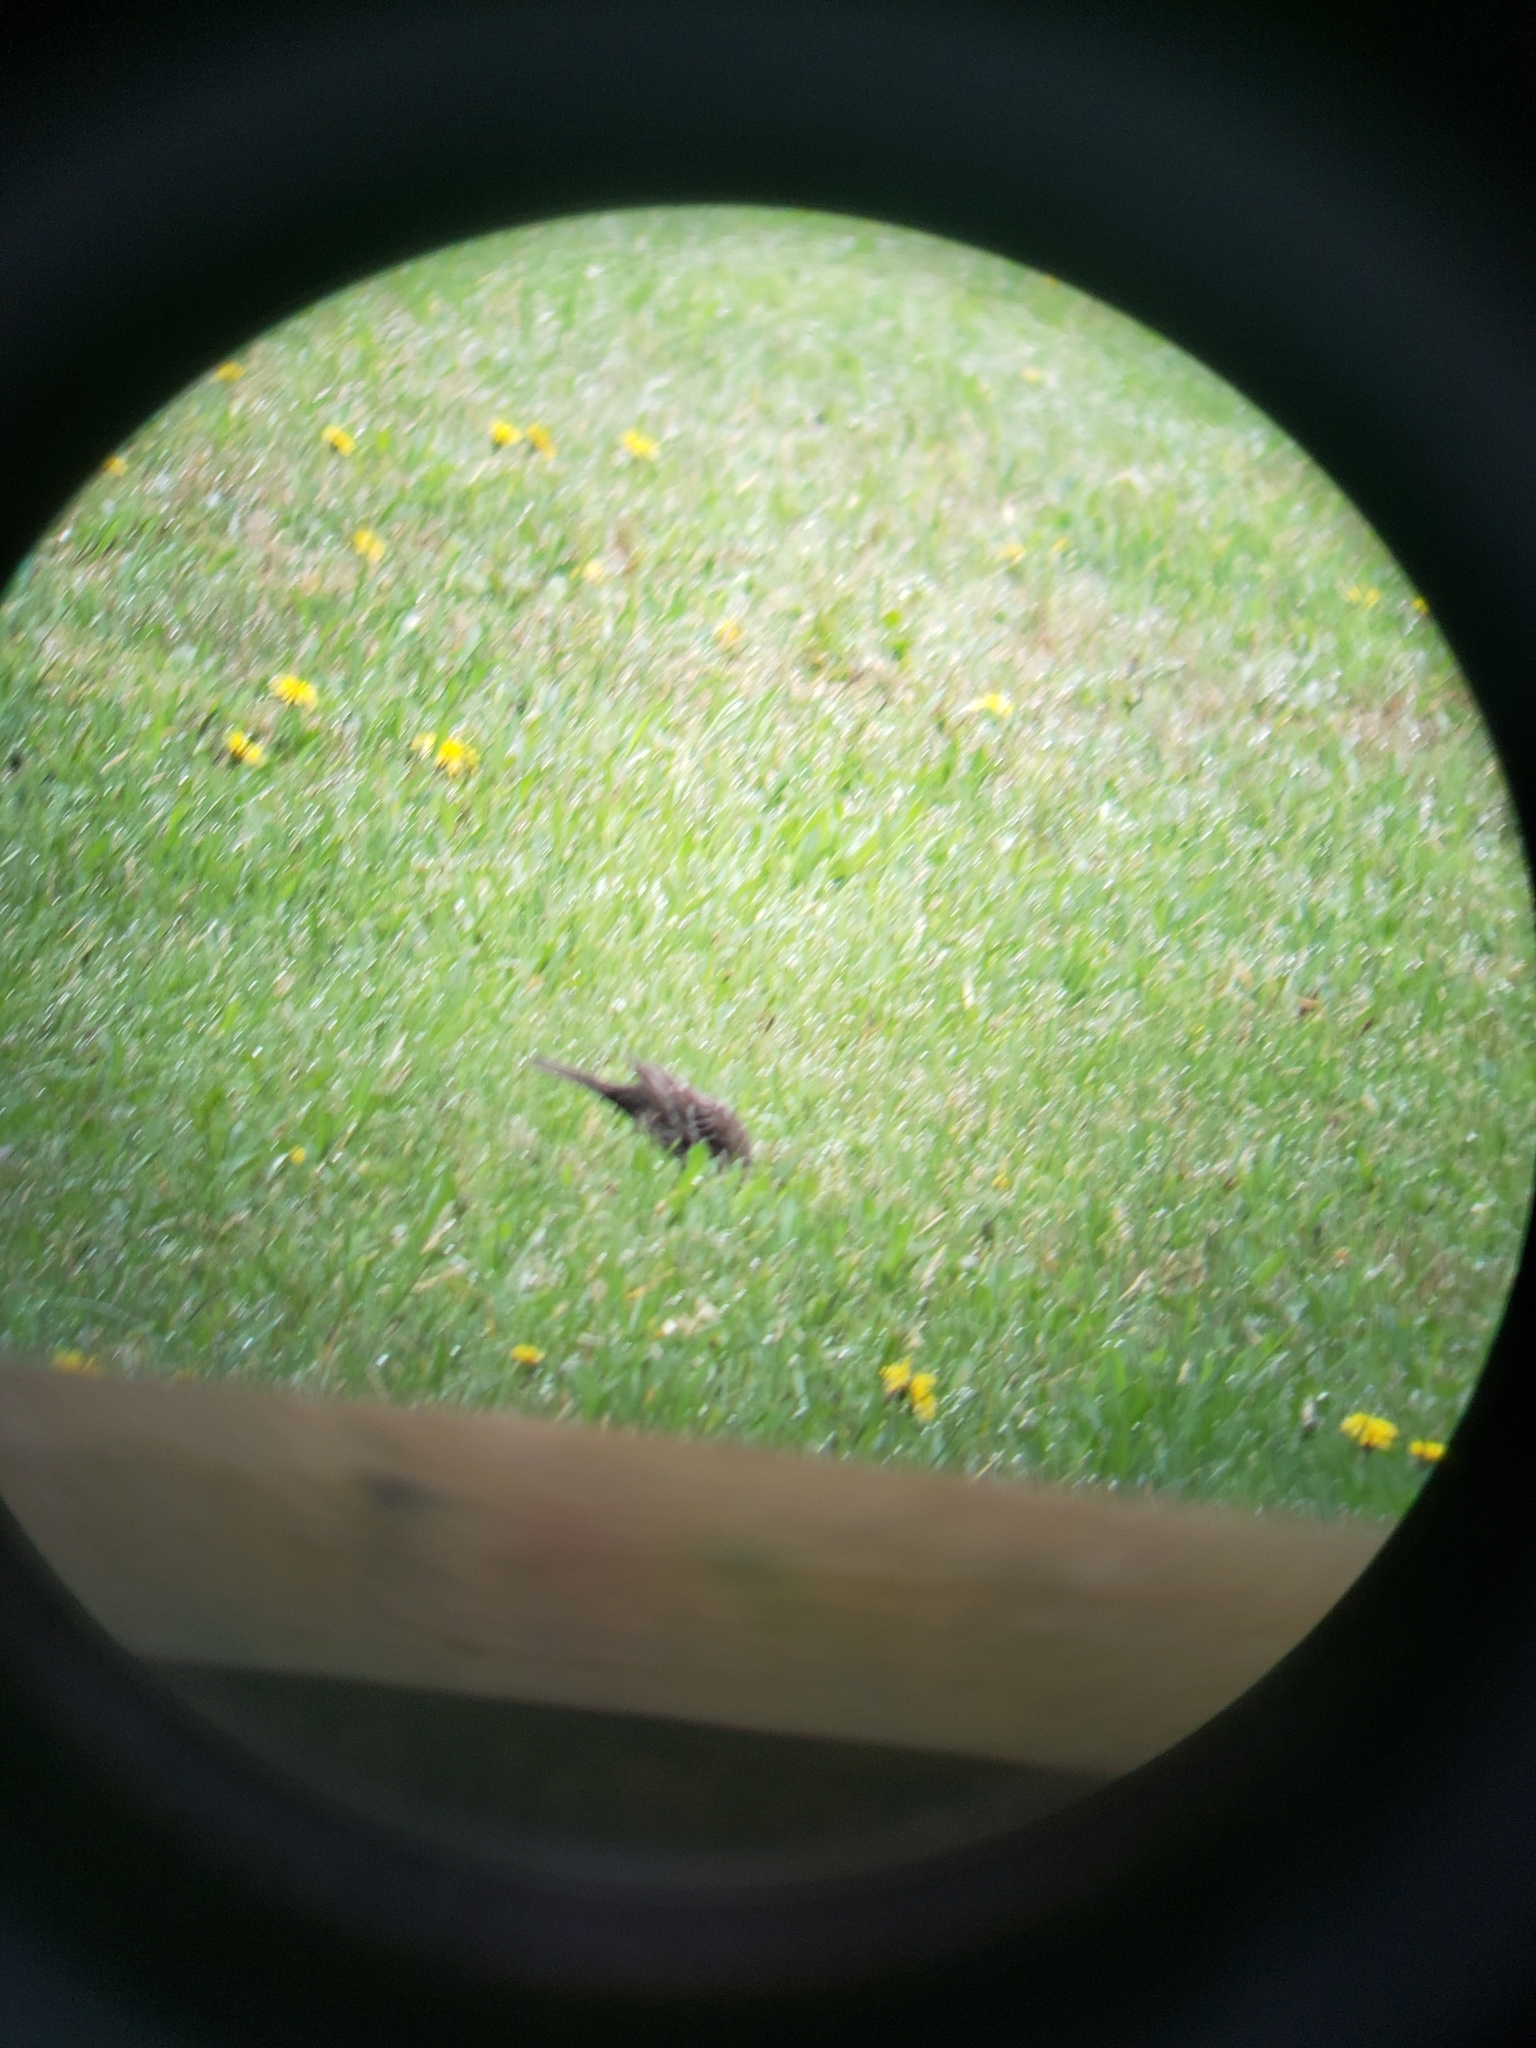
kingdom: Animalia
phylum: Chordata
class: Aves
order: Passeriformes
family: Icteridae
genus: Agelaius
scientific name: Agelaius phoeniceus
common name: Red-winged blackbird
